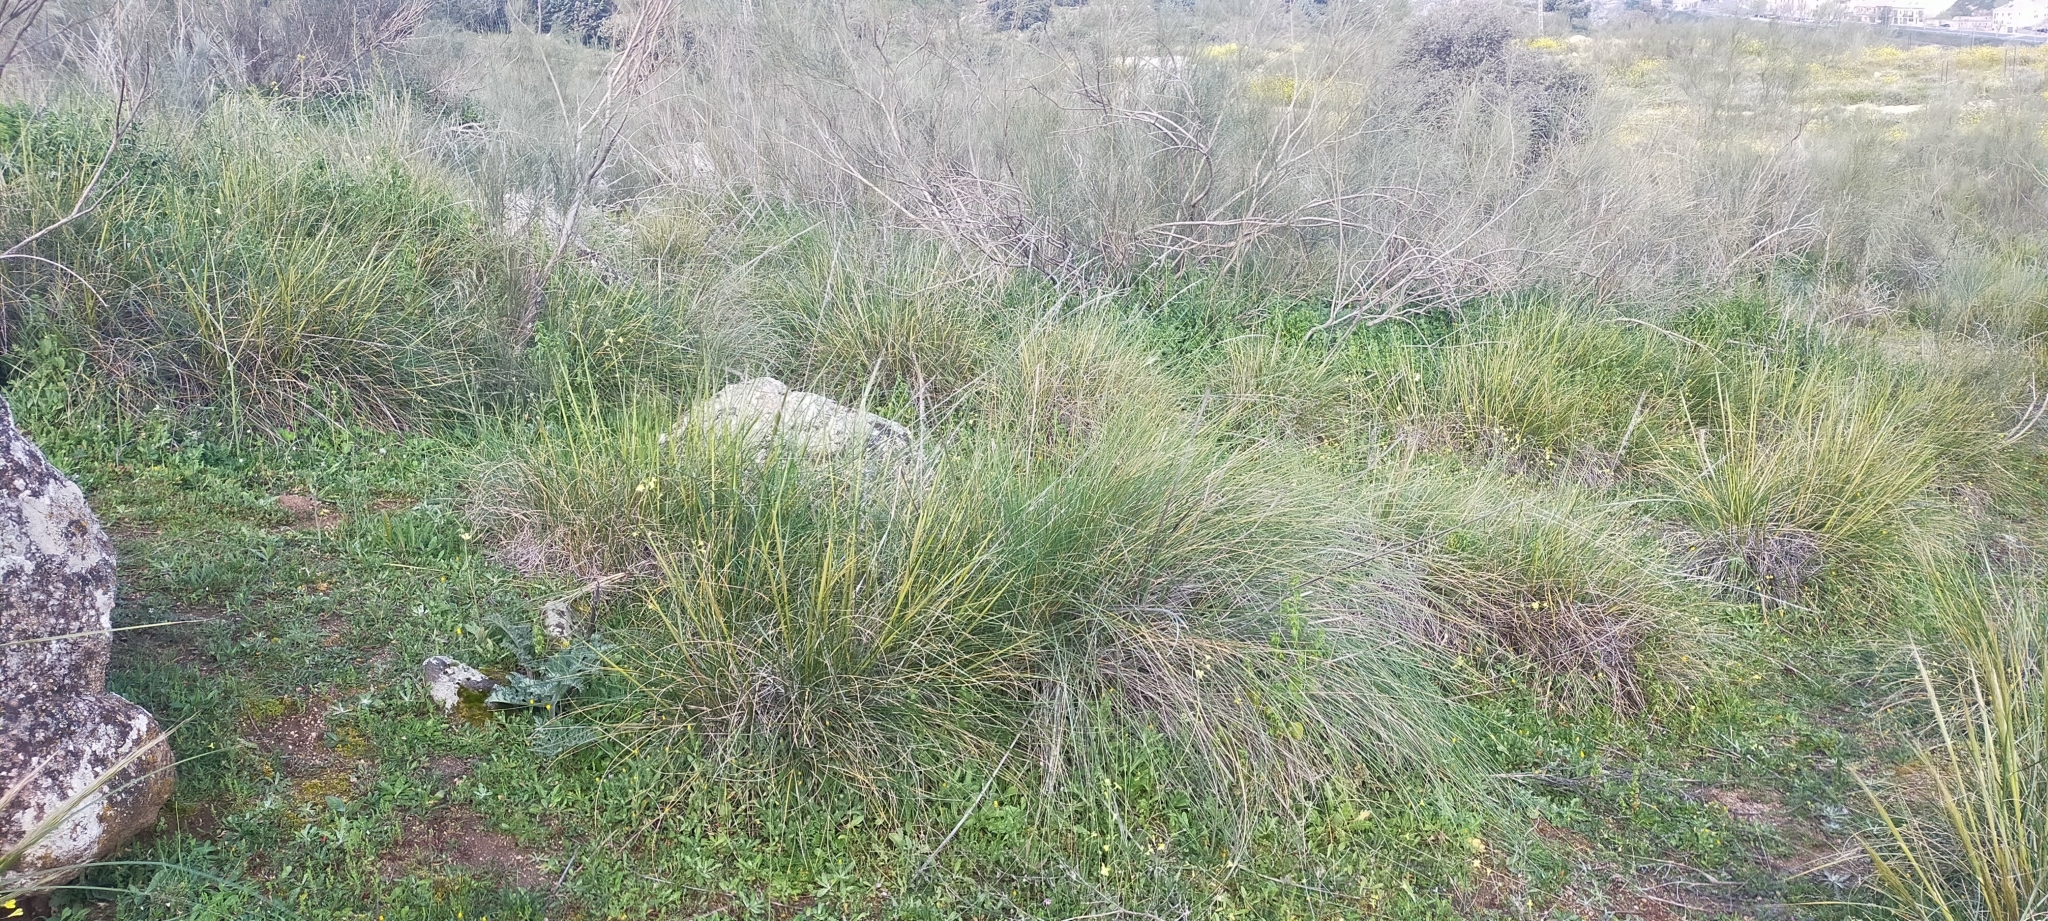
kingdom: Plantae
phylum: Tracheophyta
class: Liliopsida
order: Poales
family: Poaceae
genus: Macrochloa
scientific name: Macrochloa tenacissima
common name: Alfa grass
